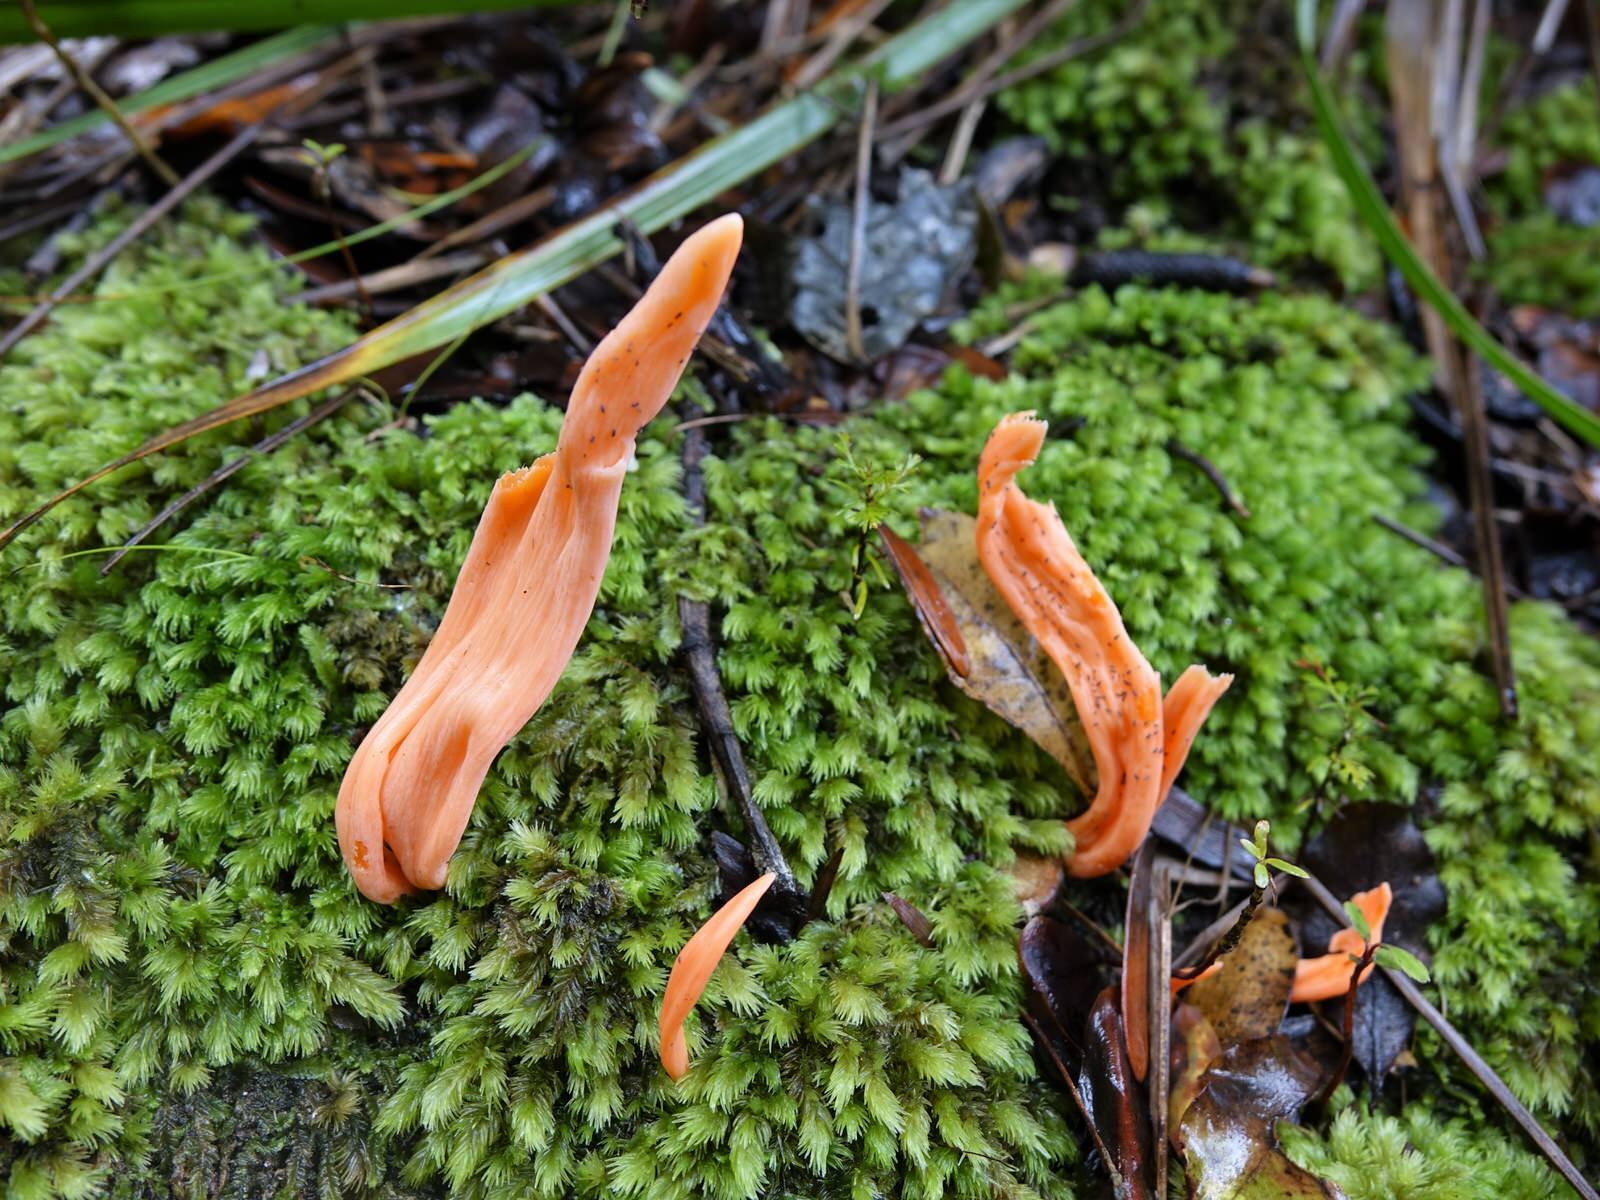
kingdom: Fungi
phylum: Basidiomycota
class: Agaricomycetes
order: Agaricales
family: Clavariaceae
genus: Clavulinopsis
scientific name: Clavulinopsis sulcata
